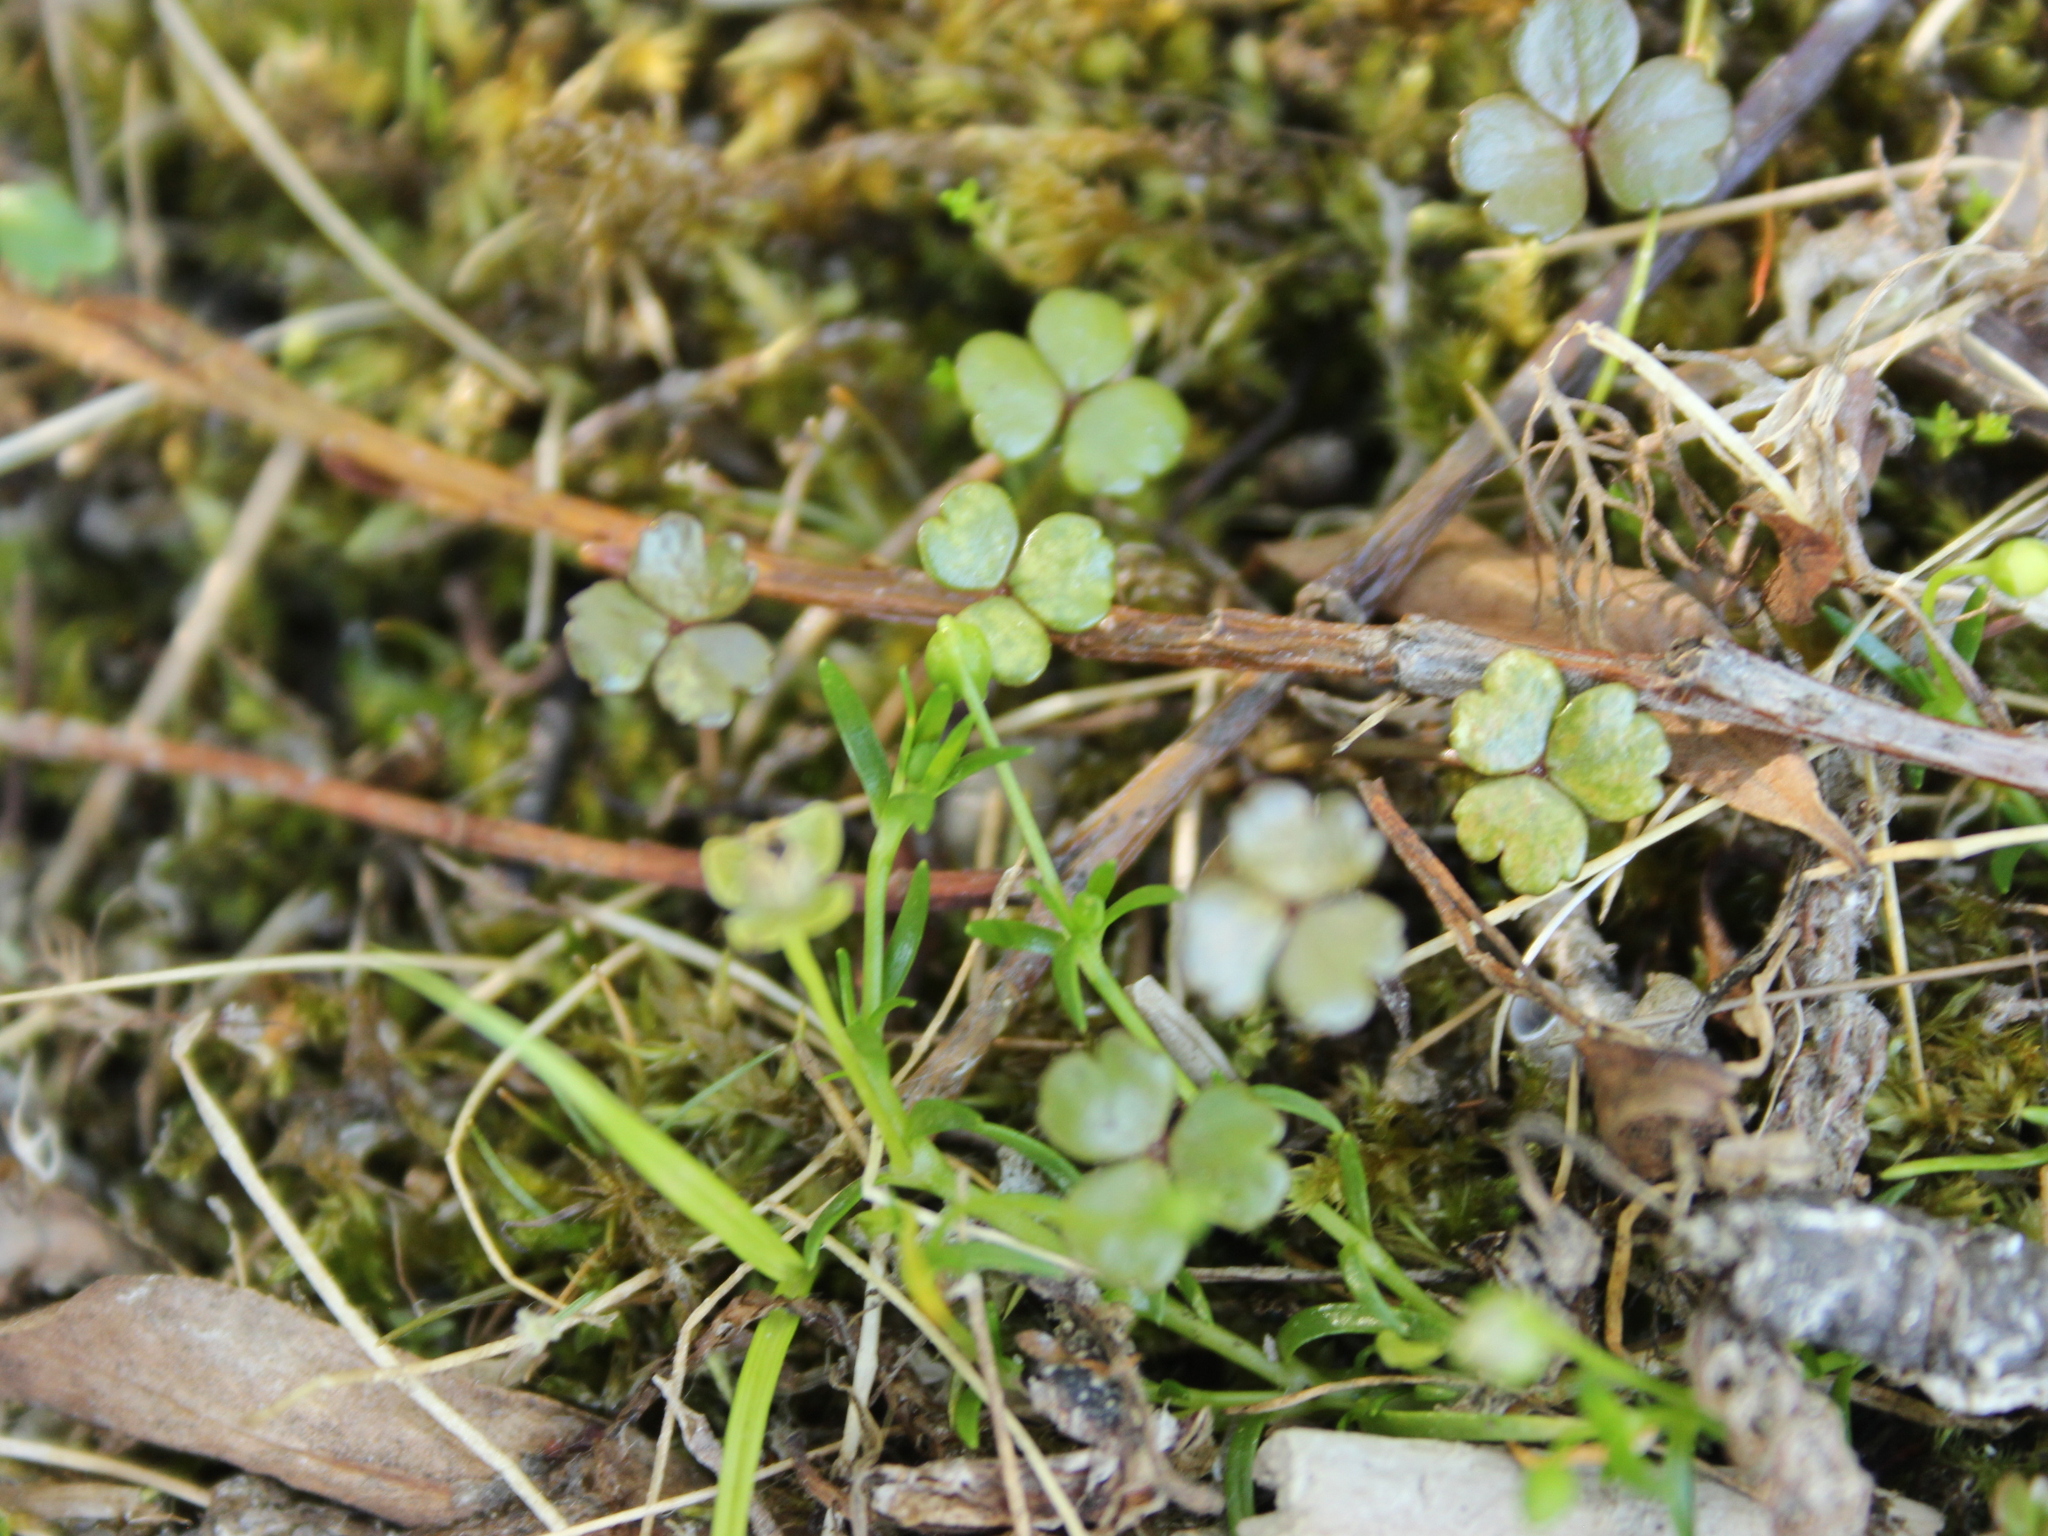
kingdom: Plantae
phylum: Tracheophyta
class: Magnoliopsida
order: Apiales
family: Araliaceae
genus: Hydrocotyle
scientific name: Hydrocotyle sulcata
